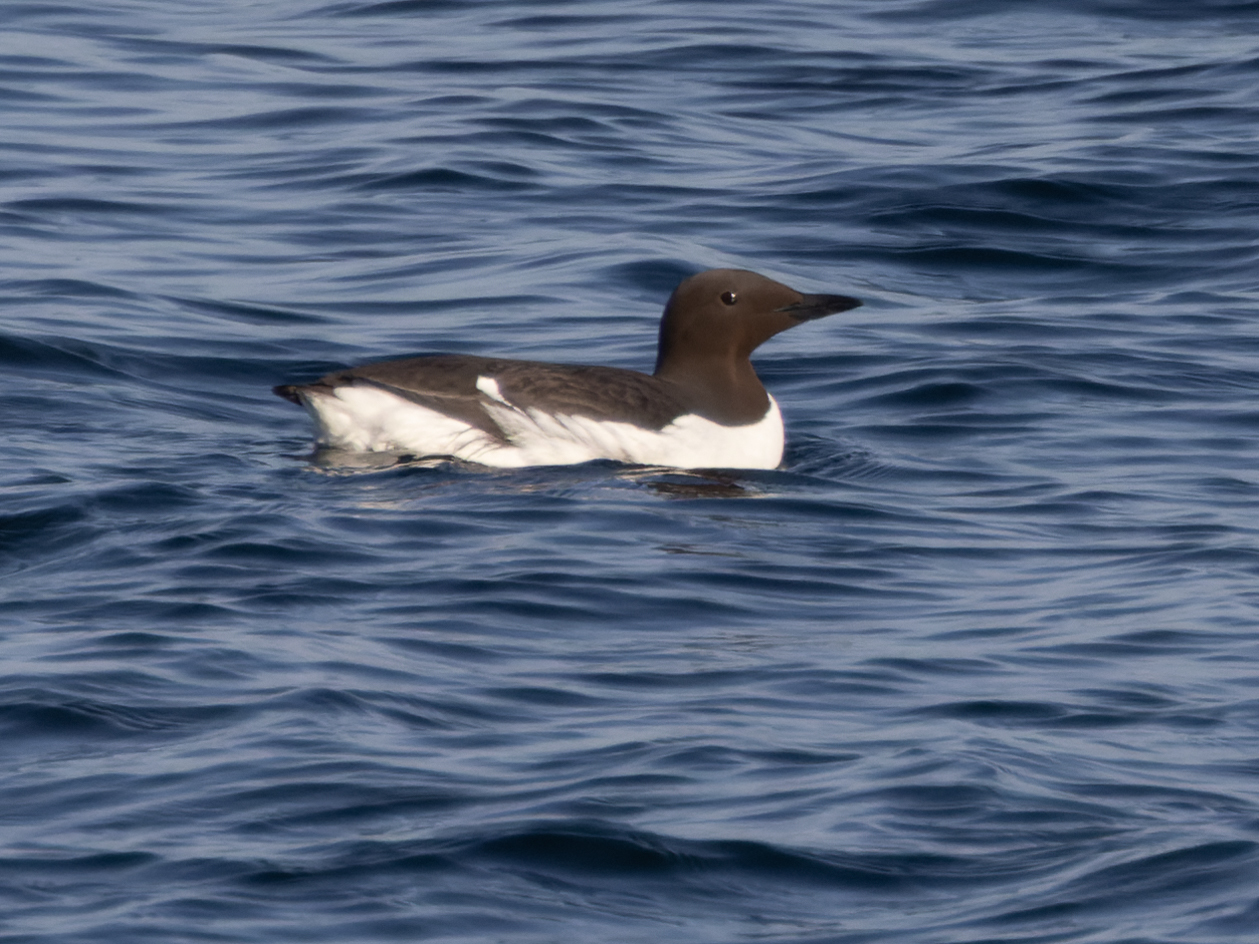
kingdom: Animalia
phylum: Chordata
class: Aves
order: Charadriiformes
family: Alcidae
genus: Uria
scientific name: Uria aalge
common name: Common murre
